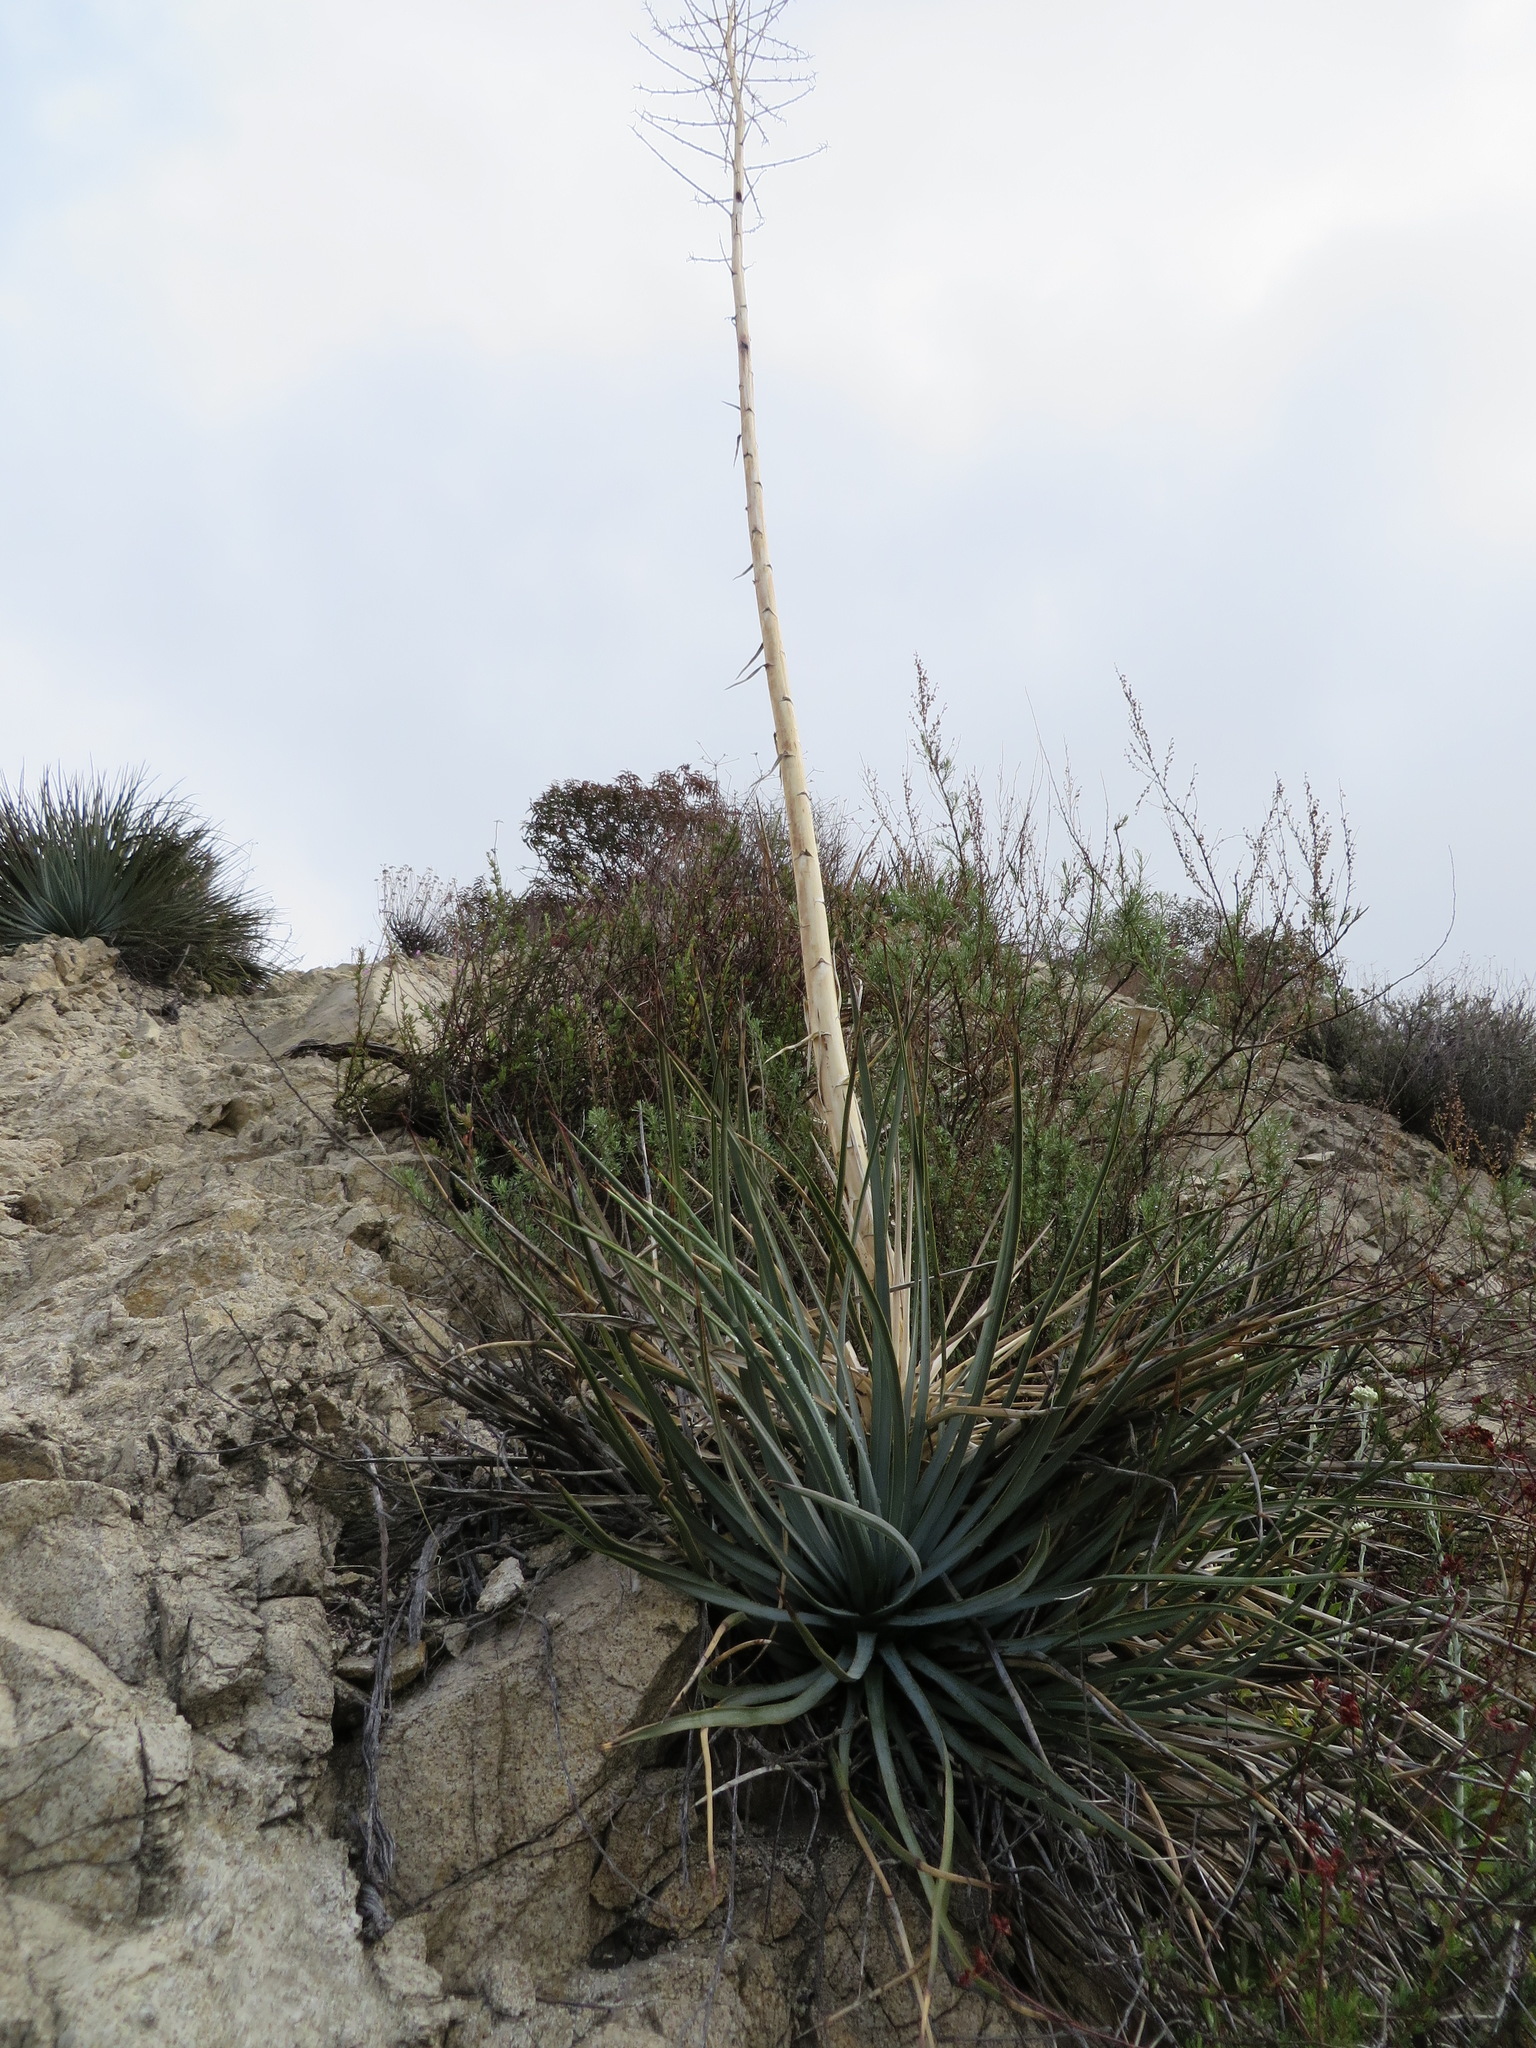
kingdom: Plantae
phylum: Tracheophyta
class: Liliopsida
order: Asparagales
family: Asparagaceae
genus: Hesperoyucca
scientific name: Hesperoyucca whipplei
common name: Our lord's-candle
